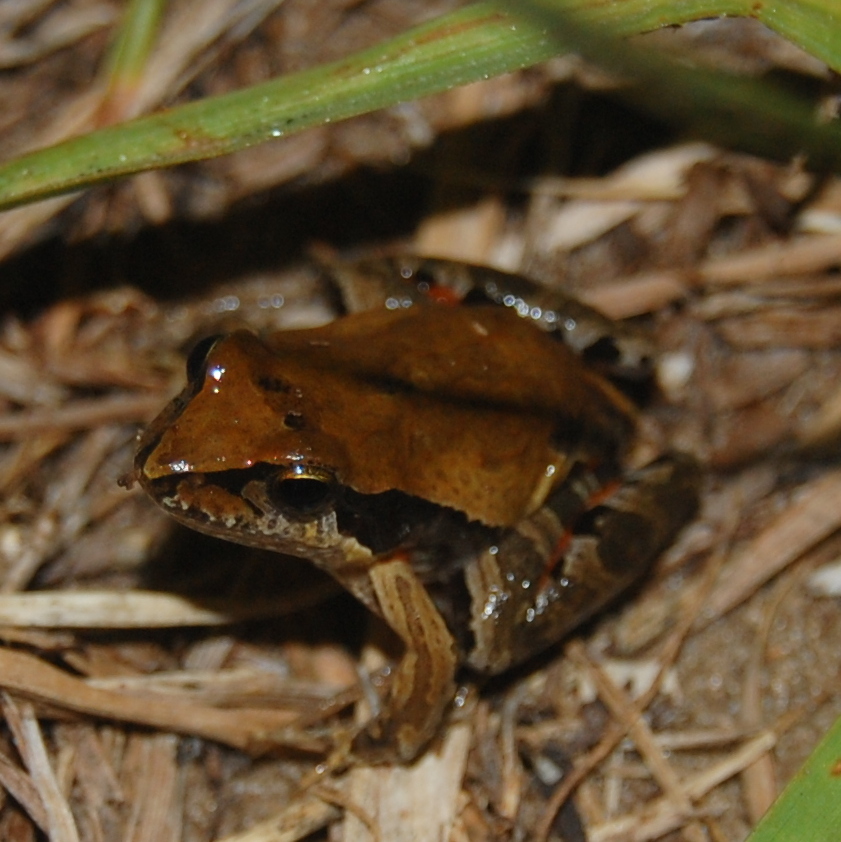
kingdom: Animalia
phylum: Chordata
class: Amphibia
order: Anura
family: Leptodactylidae
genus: Physalaemus
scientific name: Physalaemus gracilis
